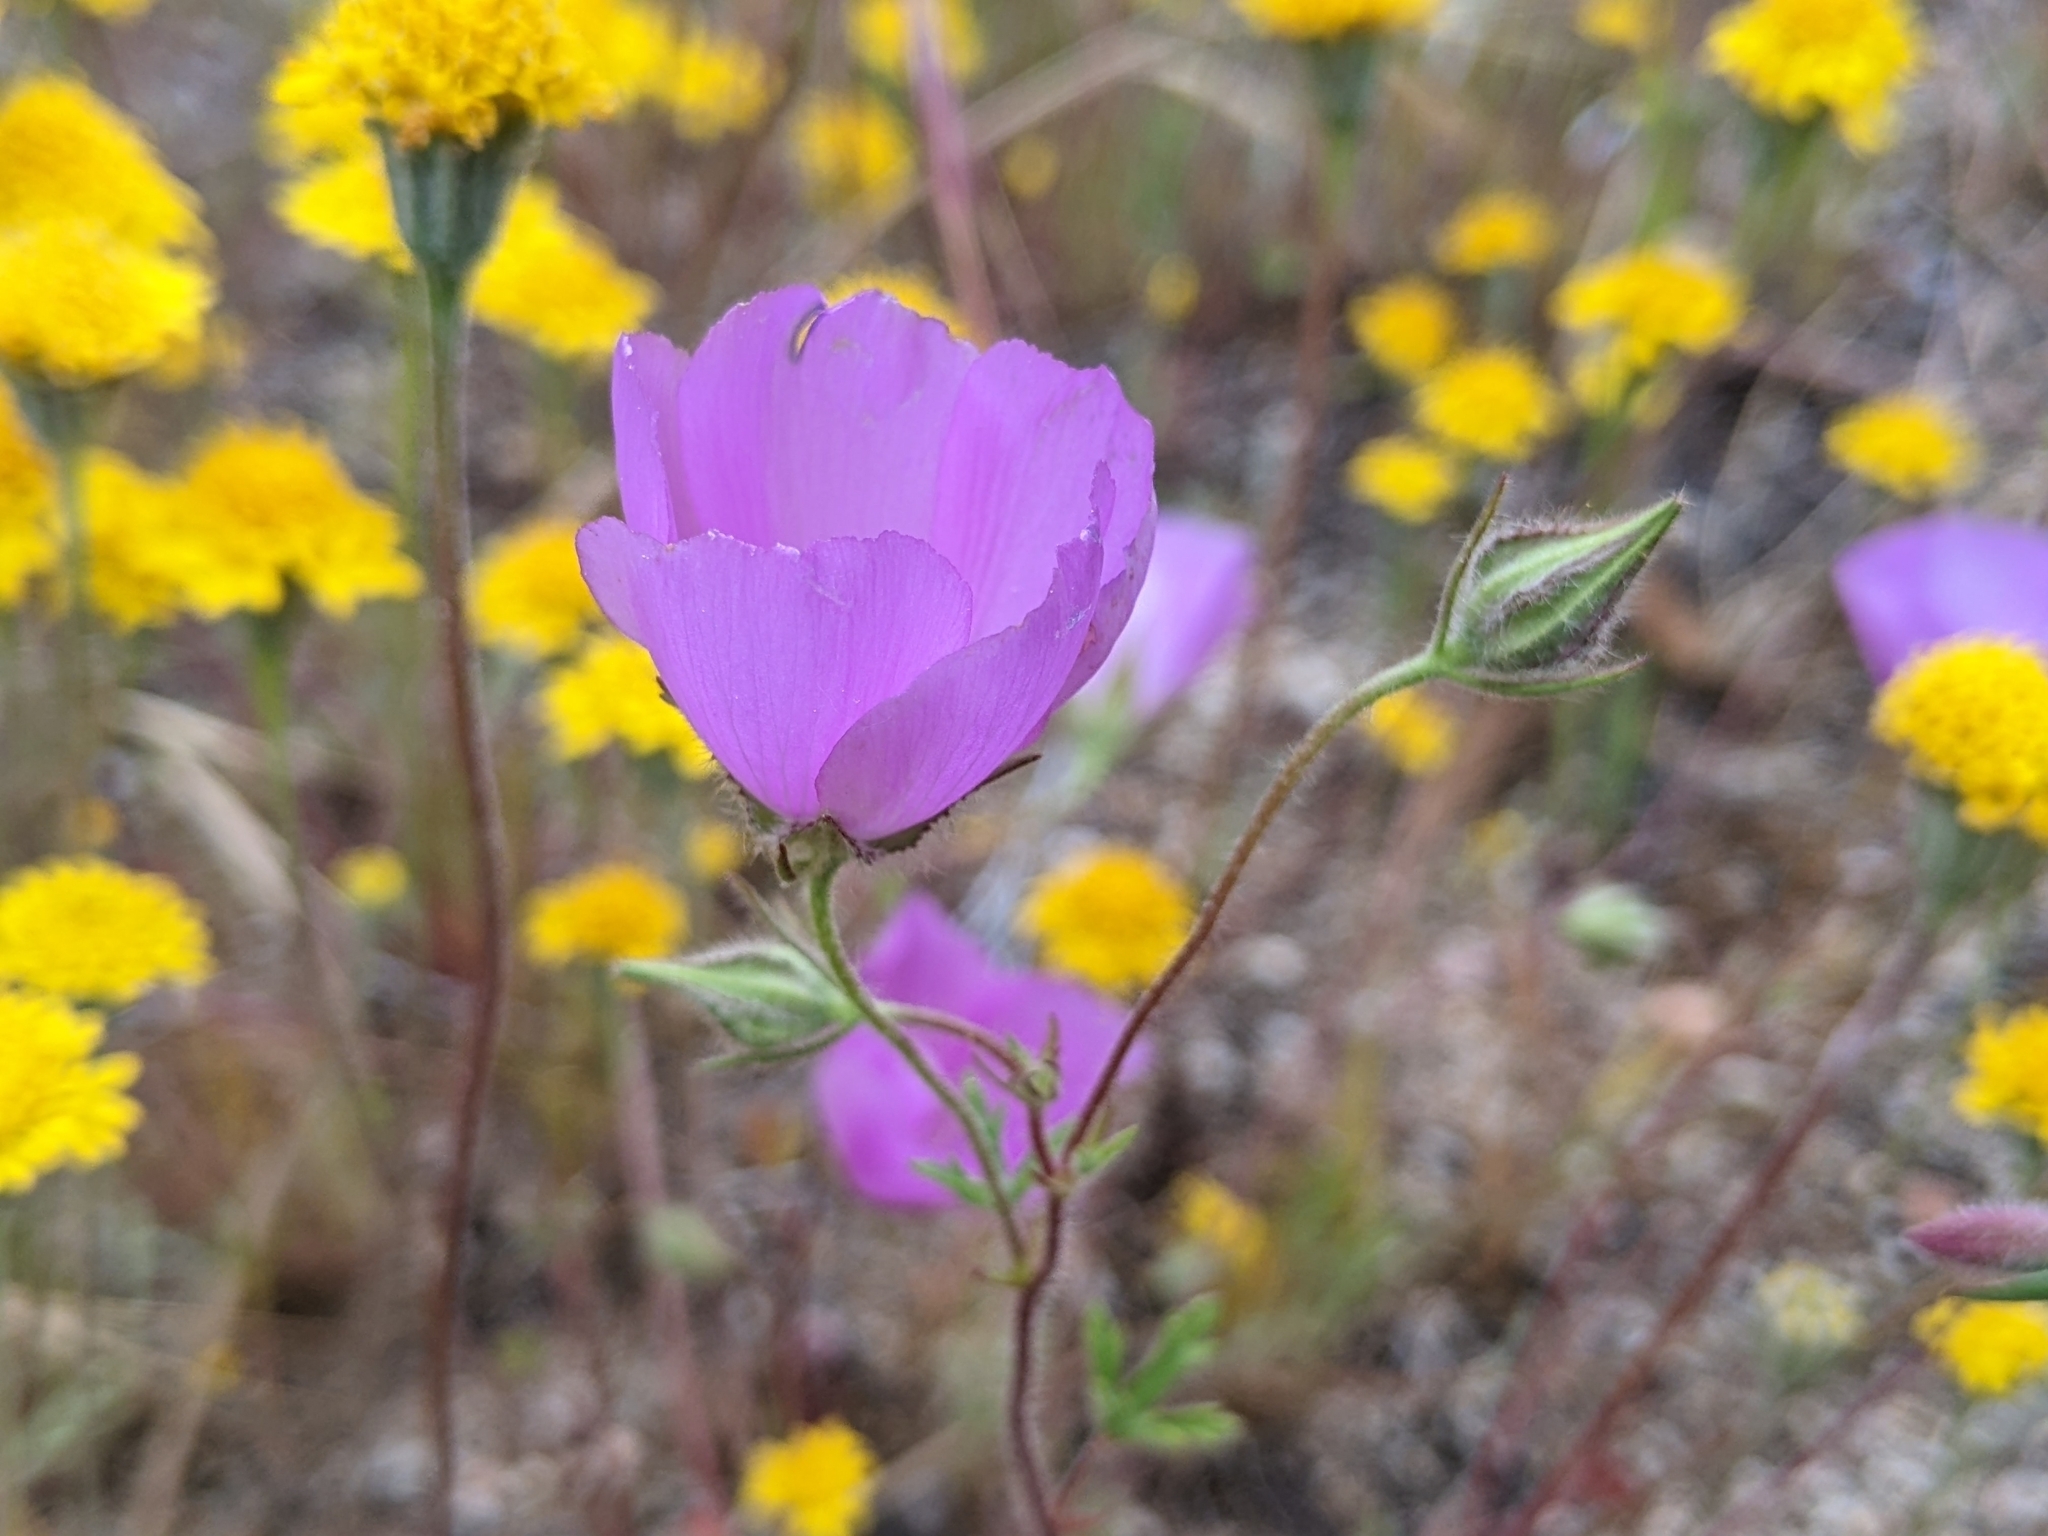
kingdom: Plantae
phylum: Tracheophyta
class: Magnoliopsida
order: Malvales
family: Malvaceae
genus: Eremalche
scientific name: Eremalche parryi
